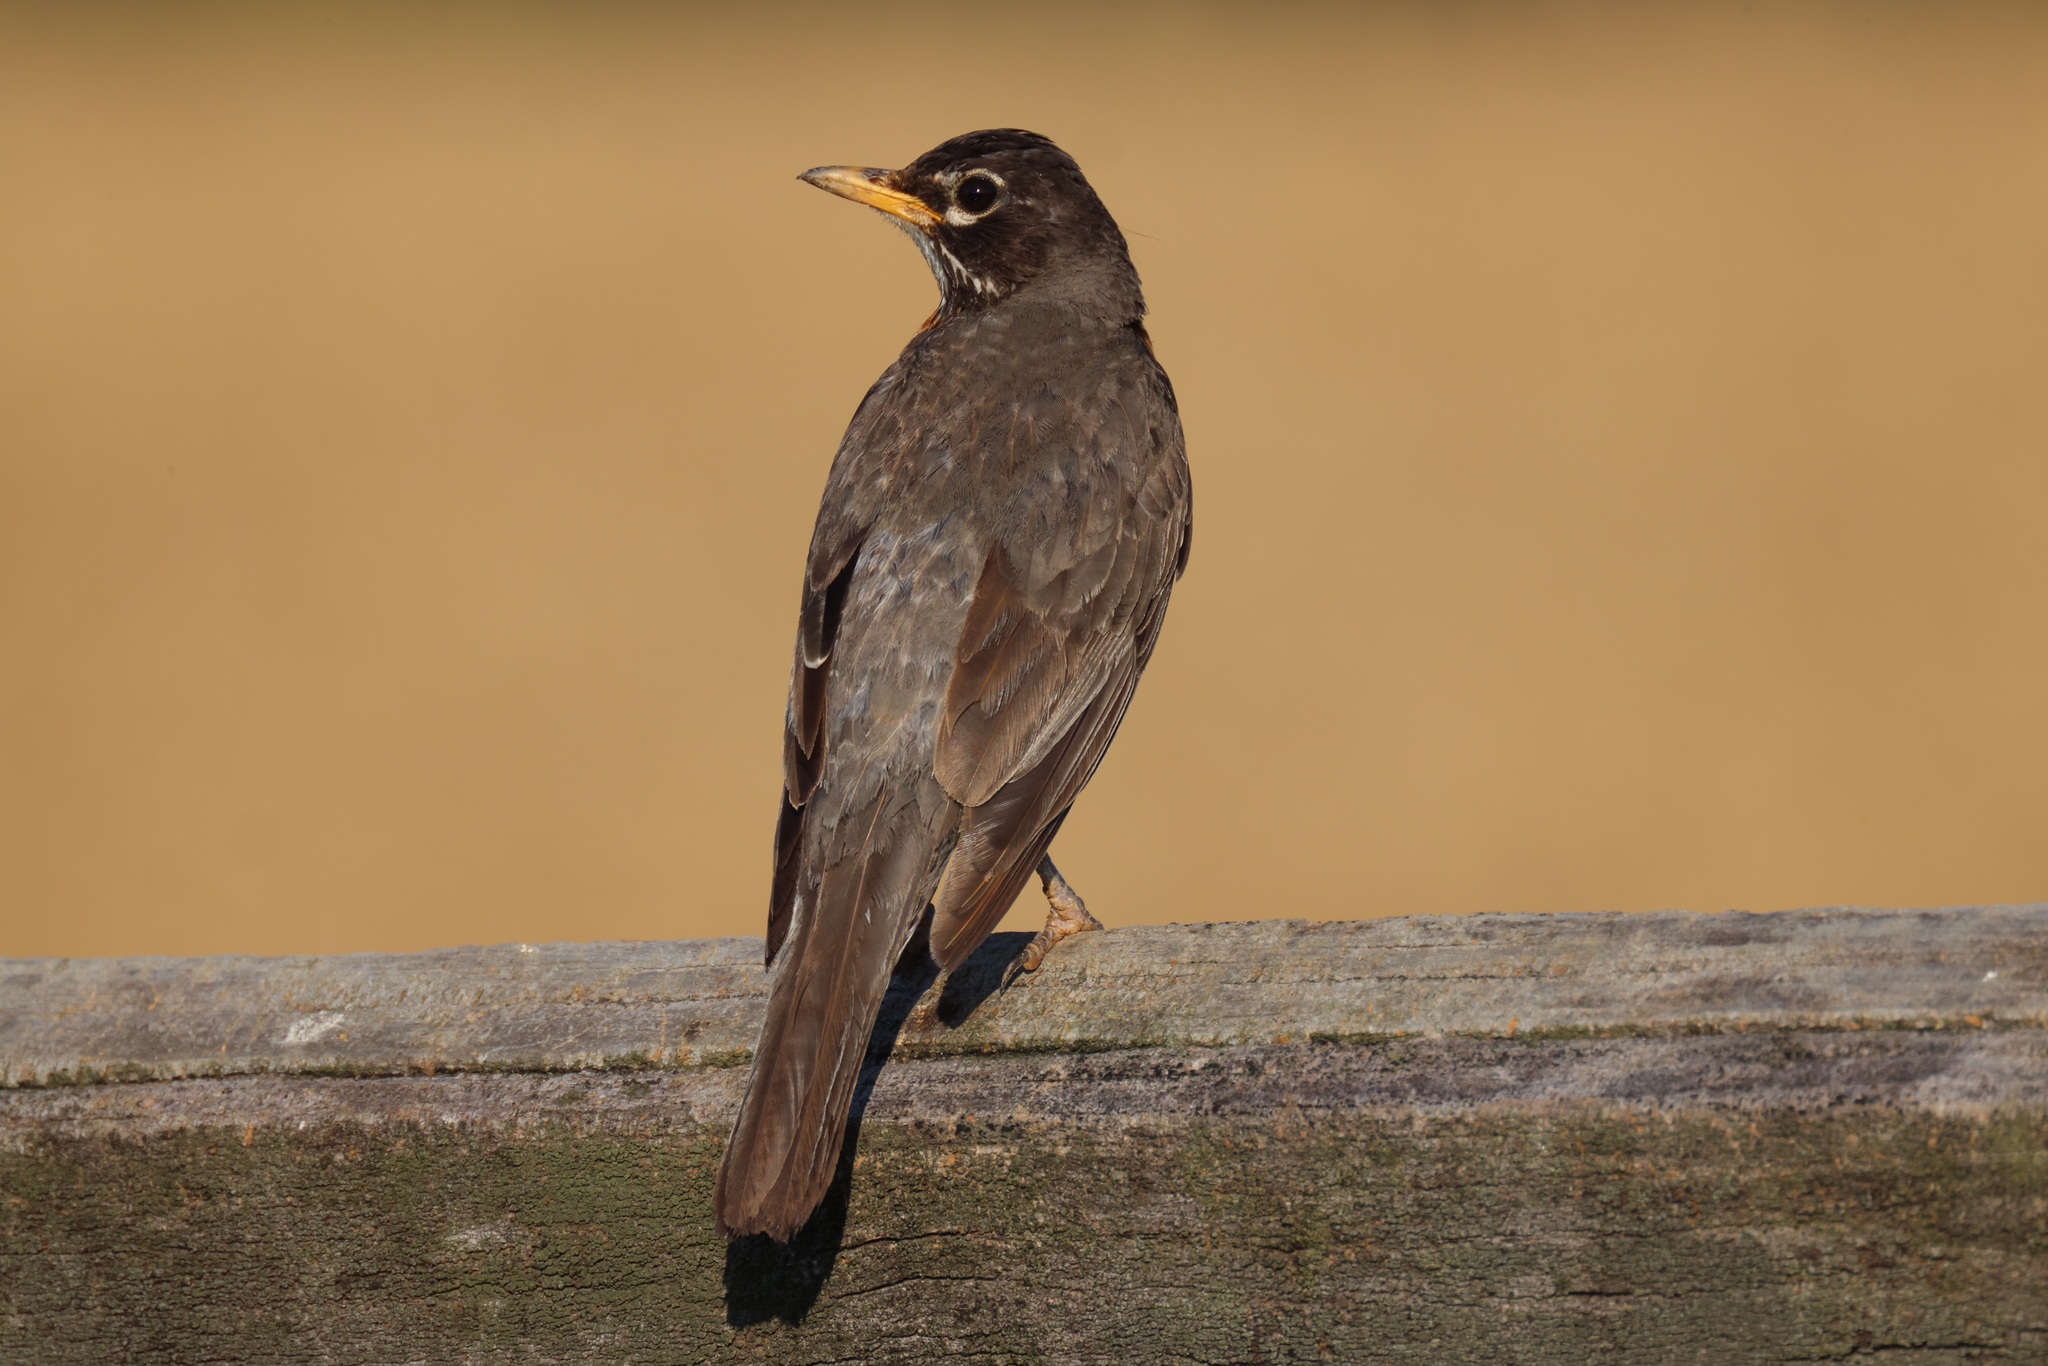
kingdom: Animalia
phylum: Chordata
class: Aves
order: Passeriformes
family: Turdidae
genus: Turdus
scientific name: Turdus migratorius
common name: American robin
